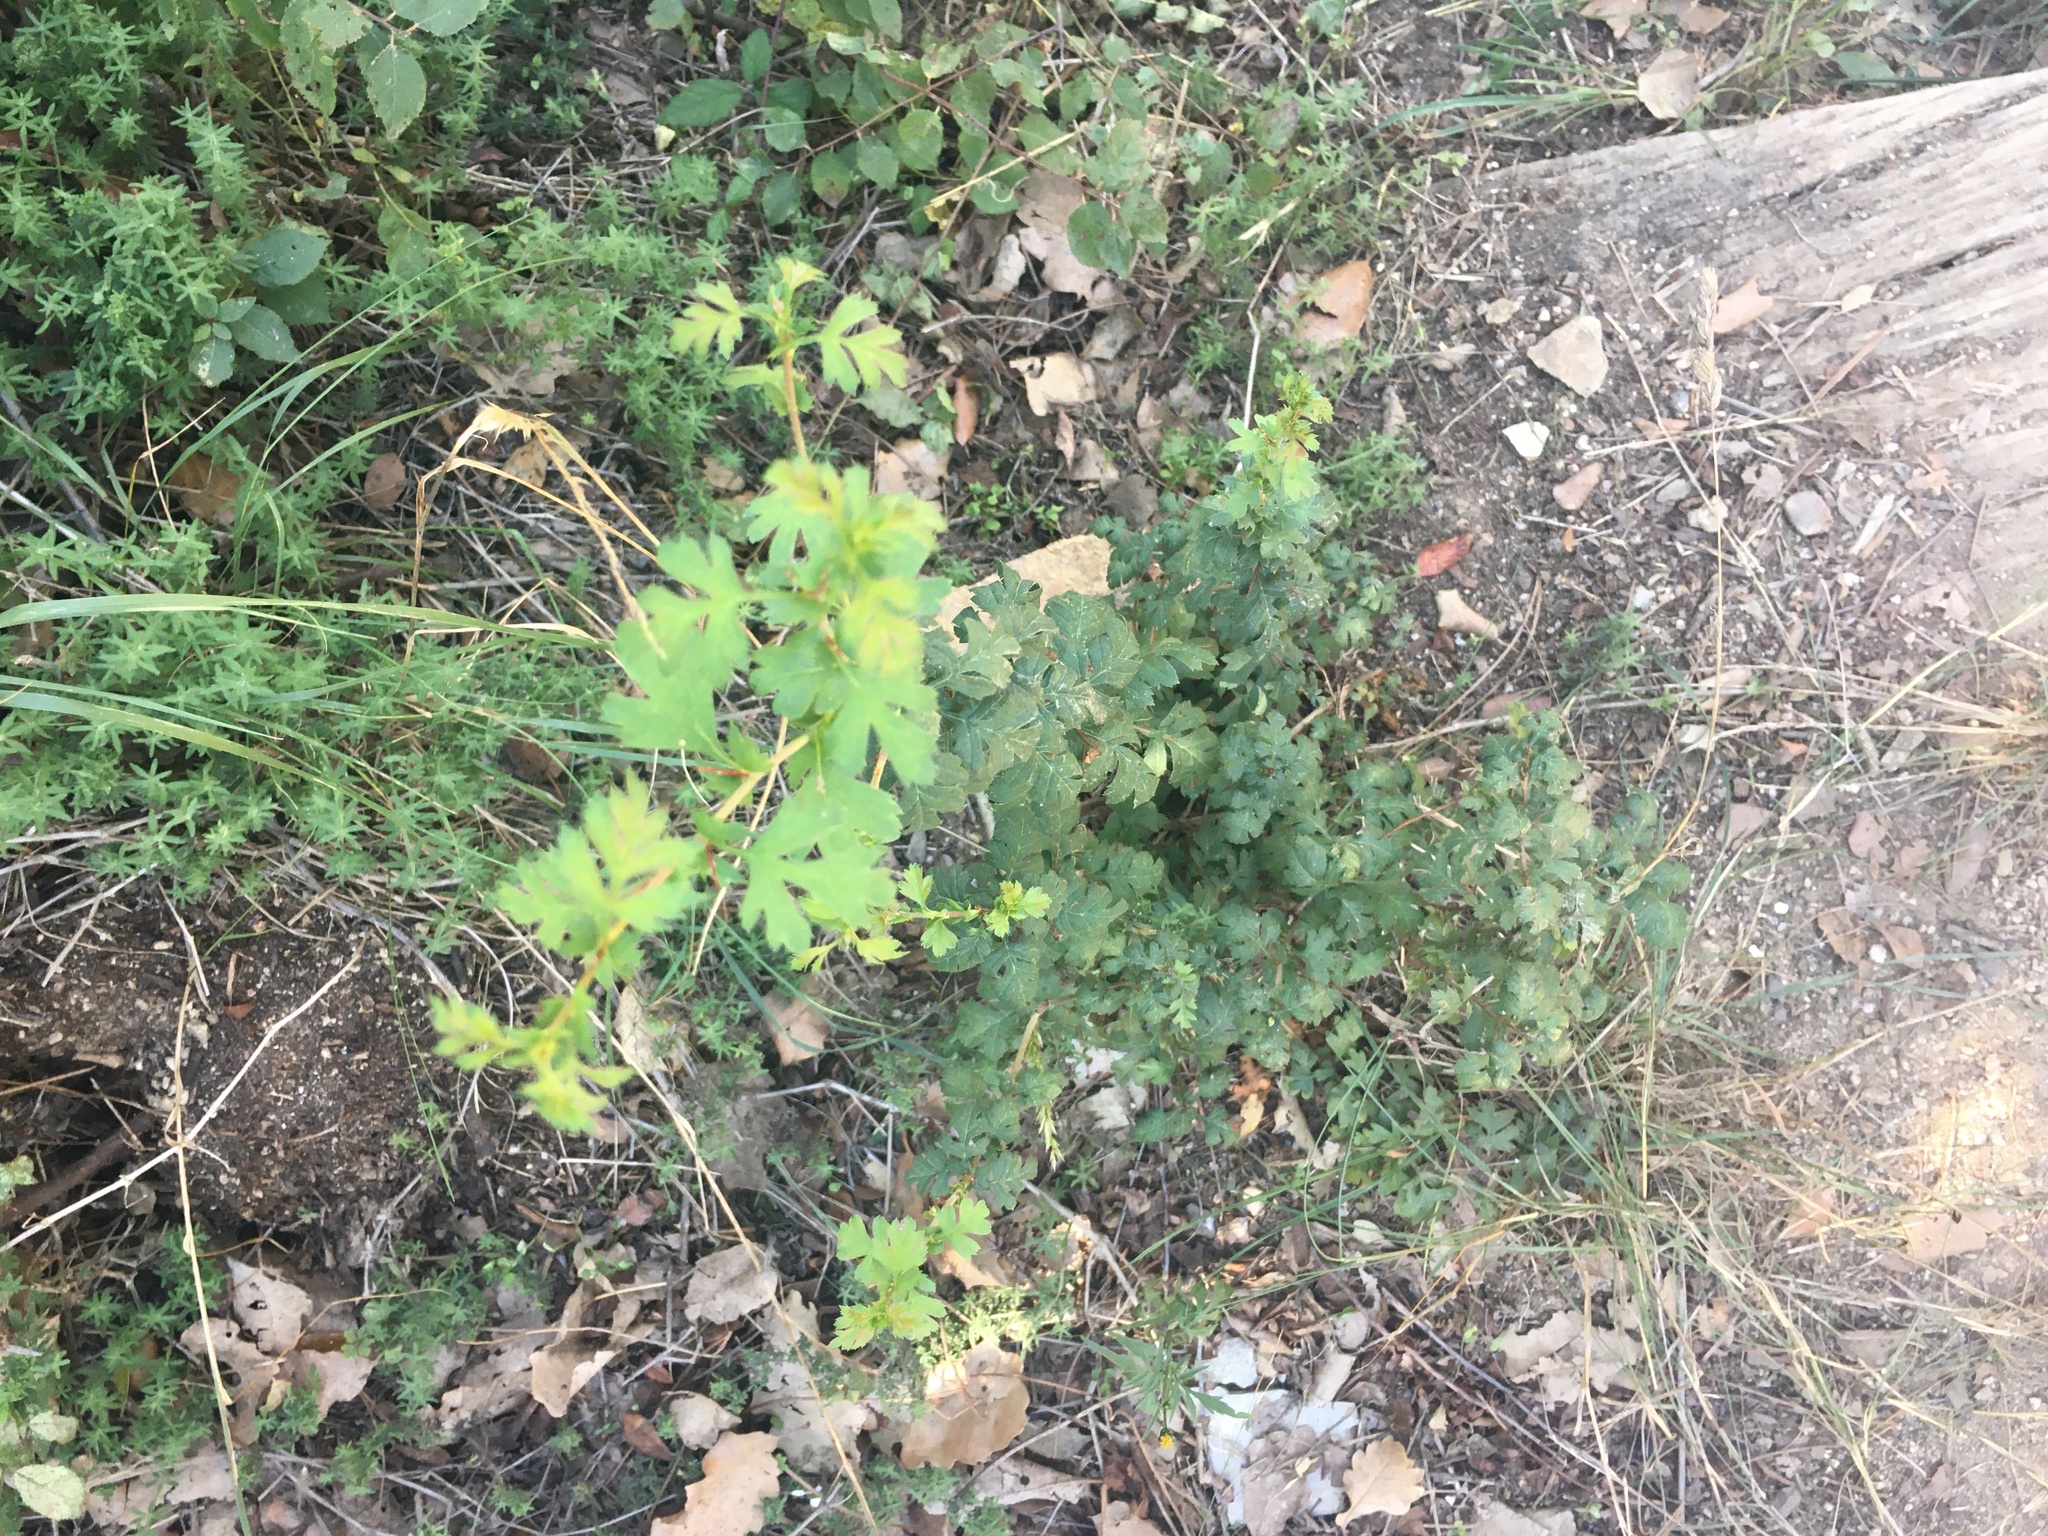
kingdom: Plantae
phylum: Tracheophyta
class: Magnoliopsida
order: Rosales
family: Rosaceae
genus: Crataegus
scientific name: Crataegus monogyna
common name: Hawthorn
